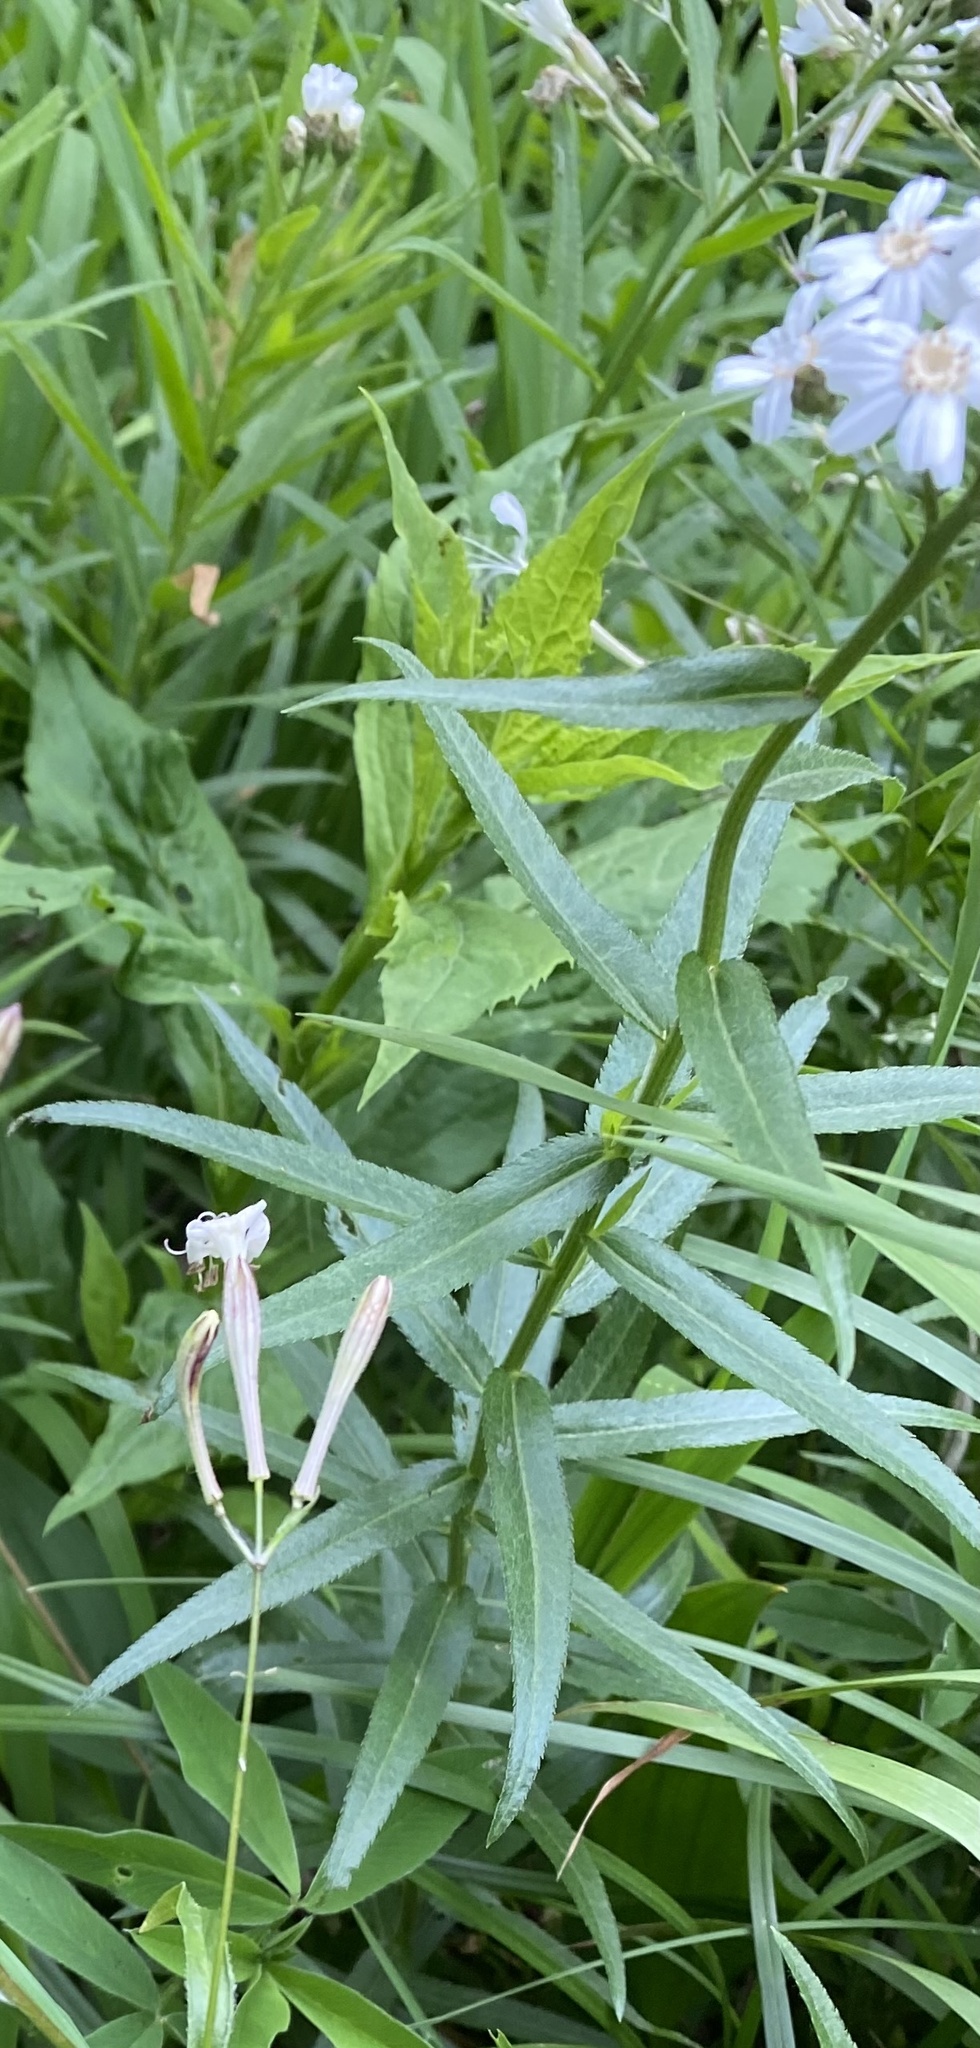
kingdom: Plantae
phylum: Tracheophyta
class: Magnoliopsida
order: Asterales
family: Asteraceae
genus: Achillea
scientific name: Achillea biserrata
